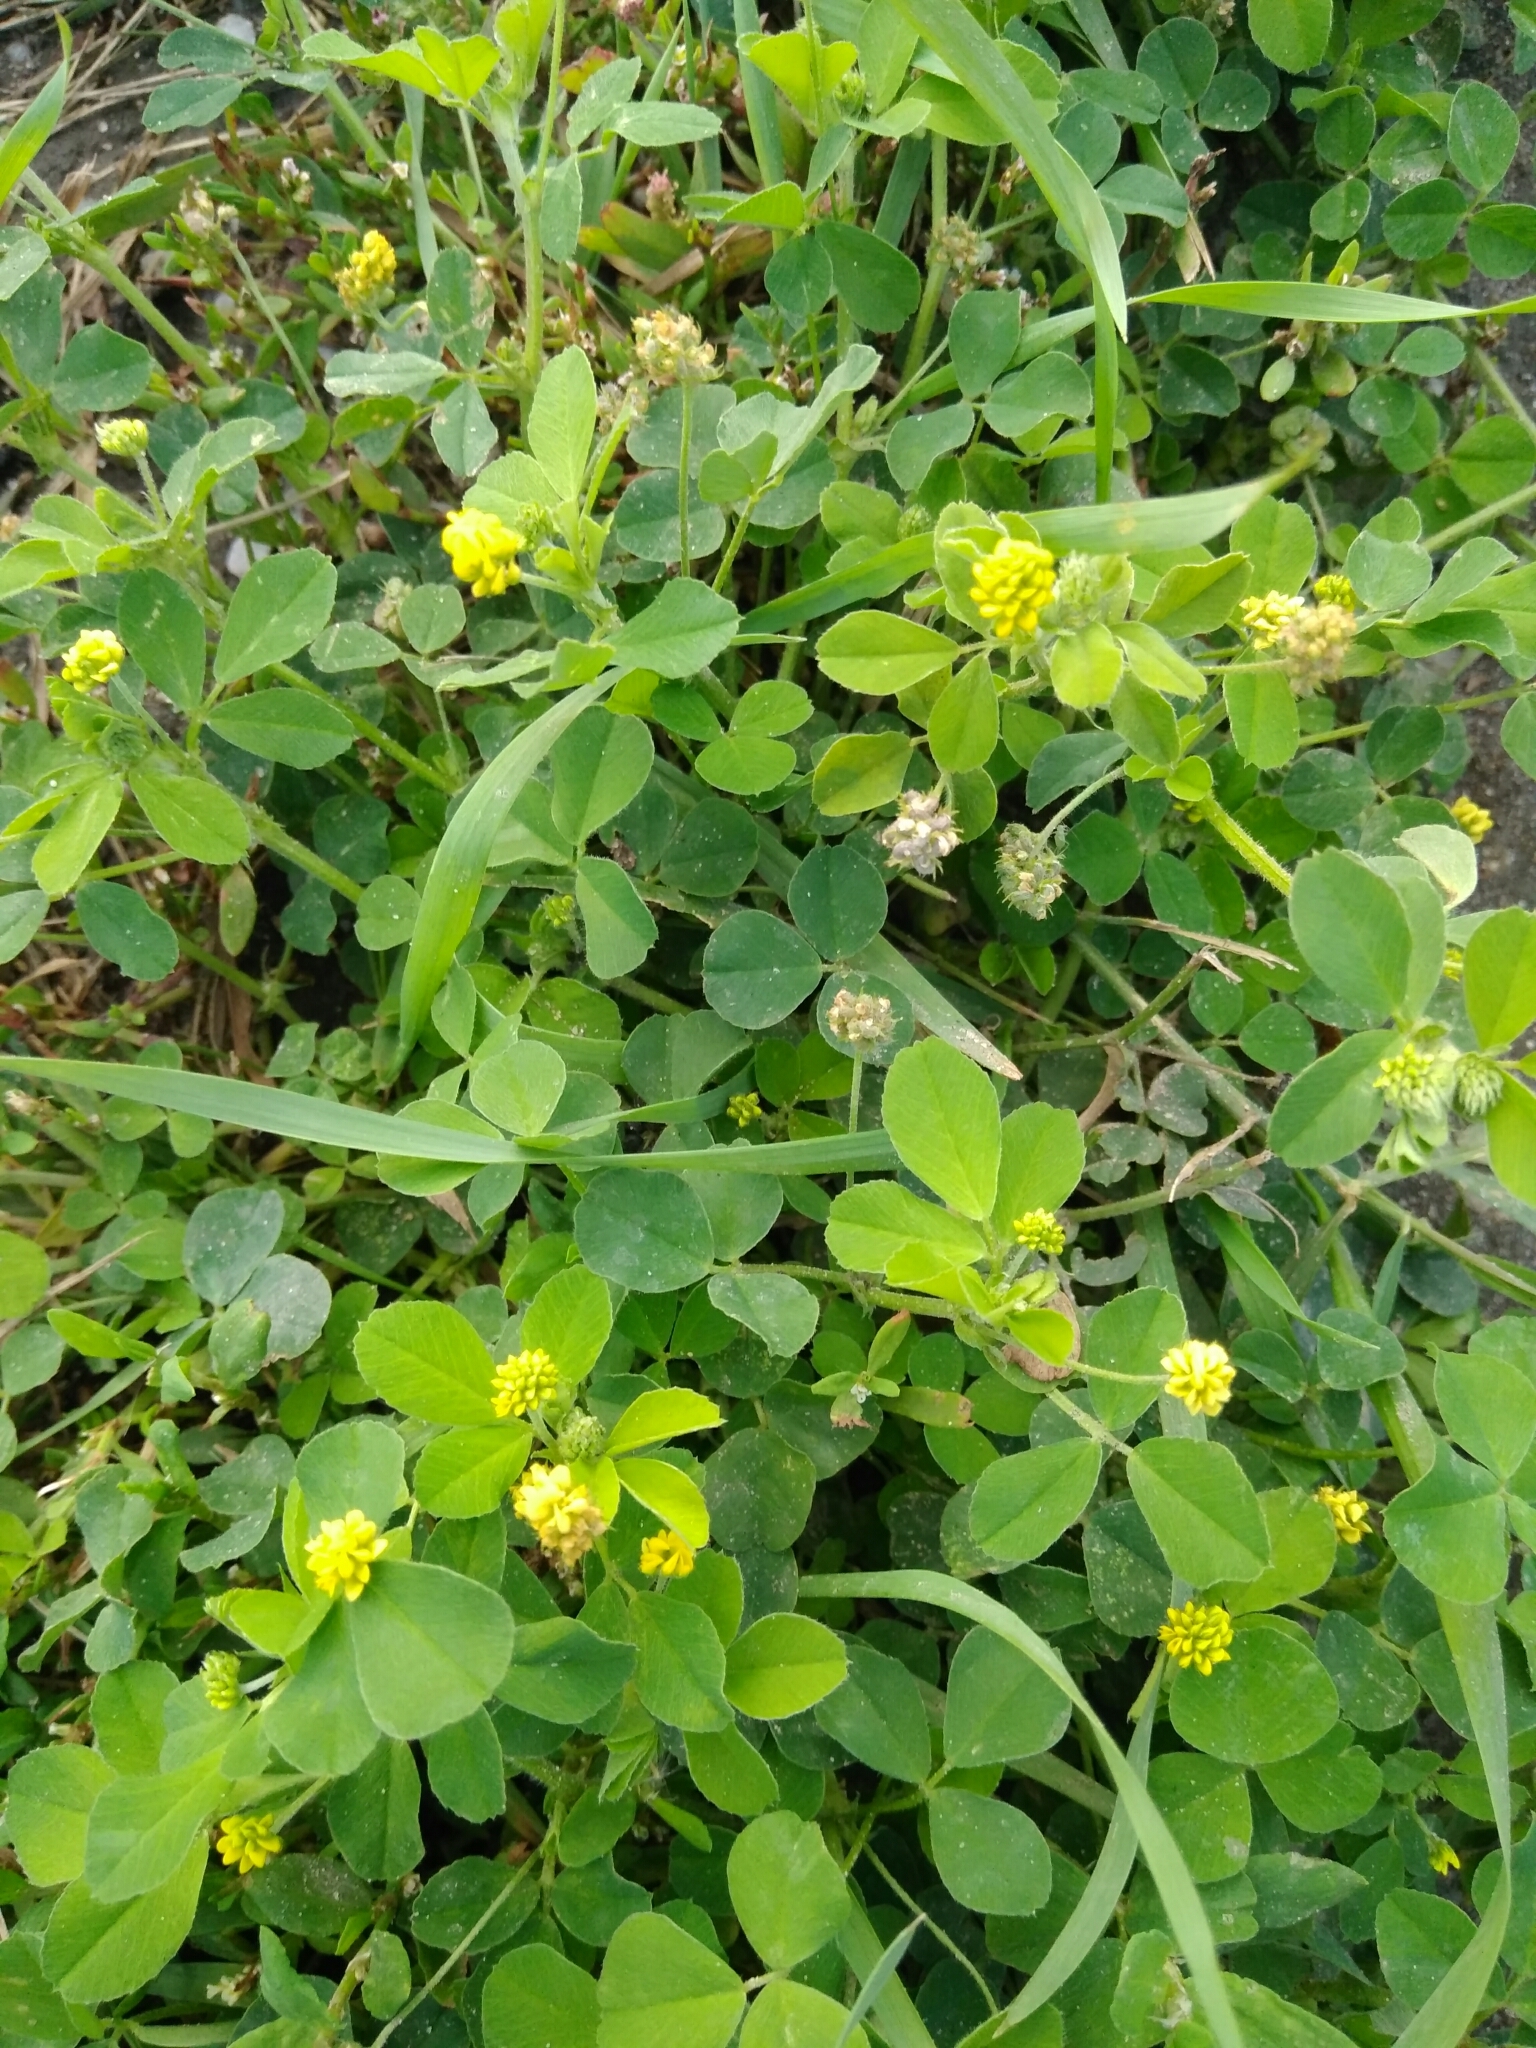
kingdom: Plantae
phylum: Tracheophyta
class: Magnoliopsida
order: Fabales
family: Fabaceae
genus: Medicago
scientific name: Medicago lupulina
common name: Black medick
